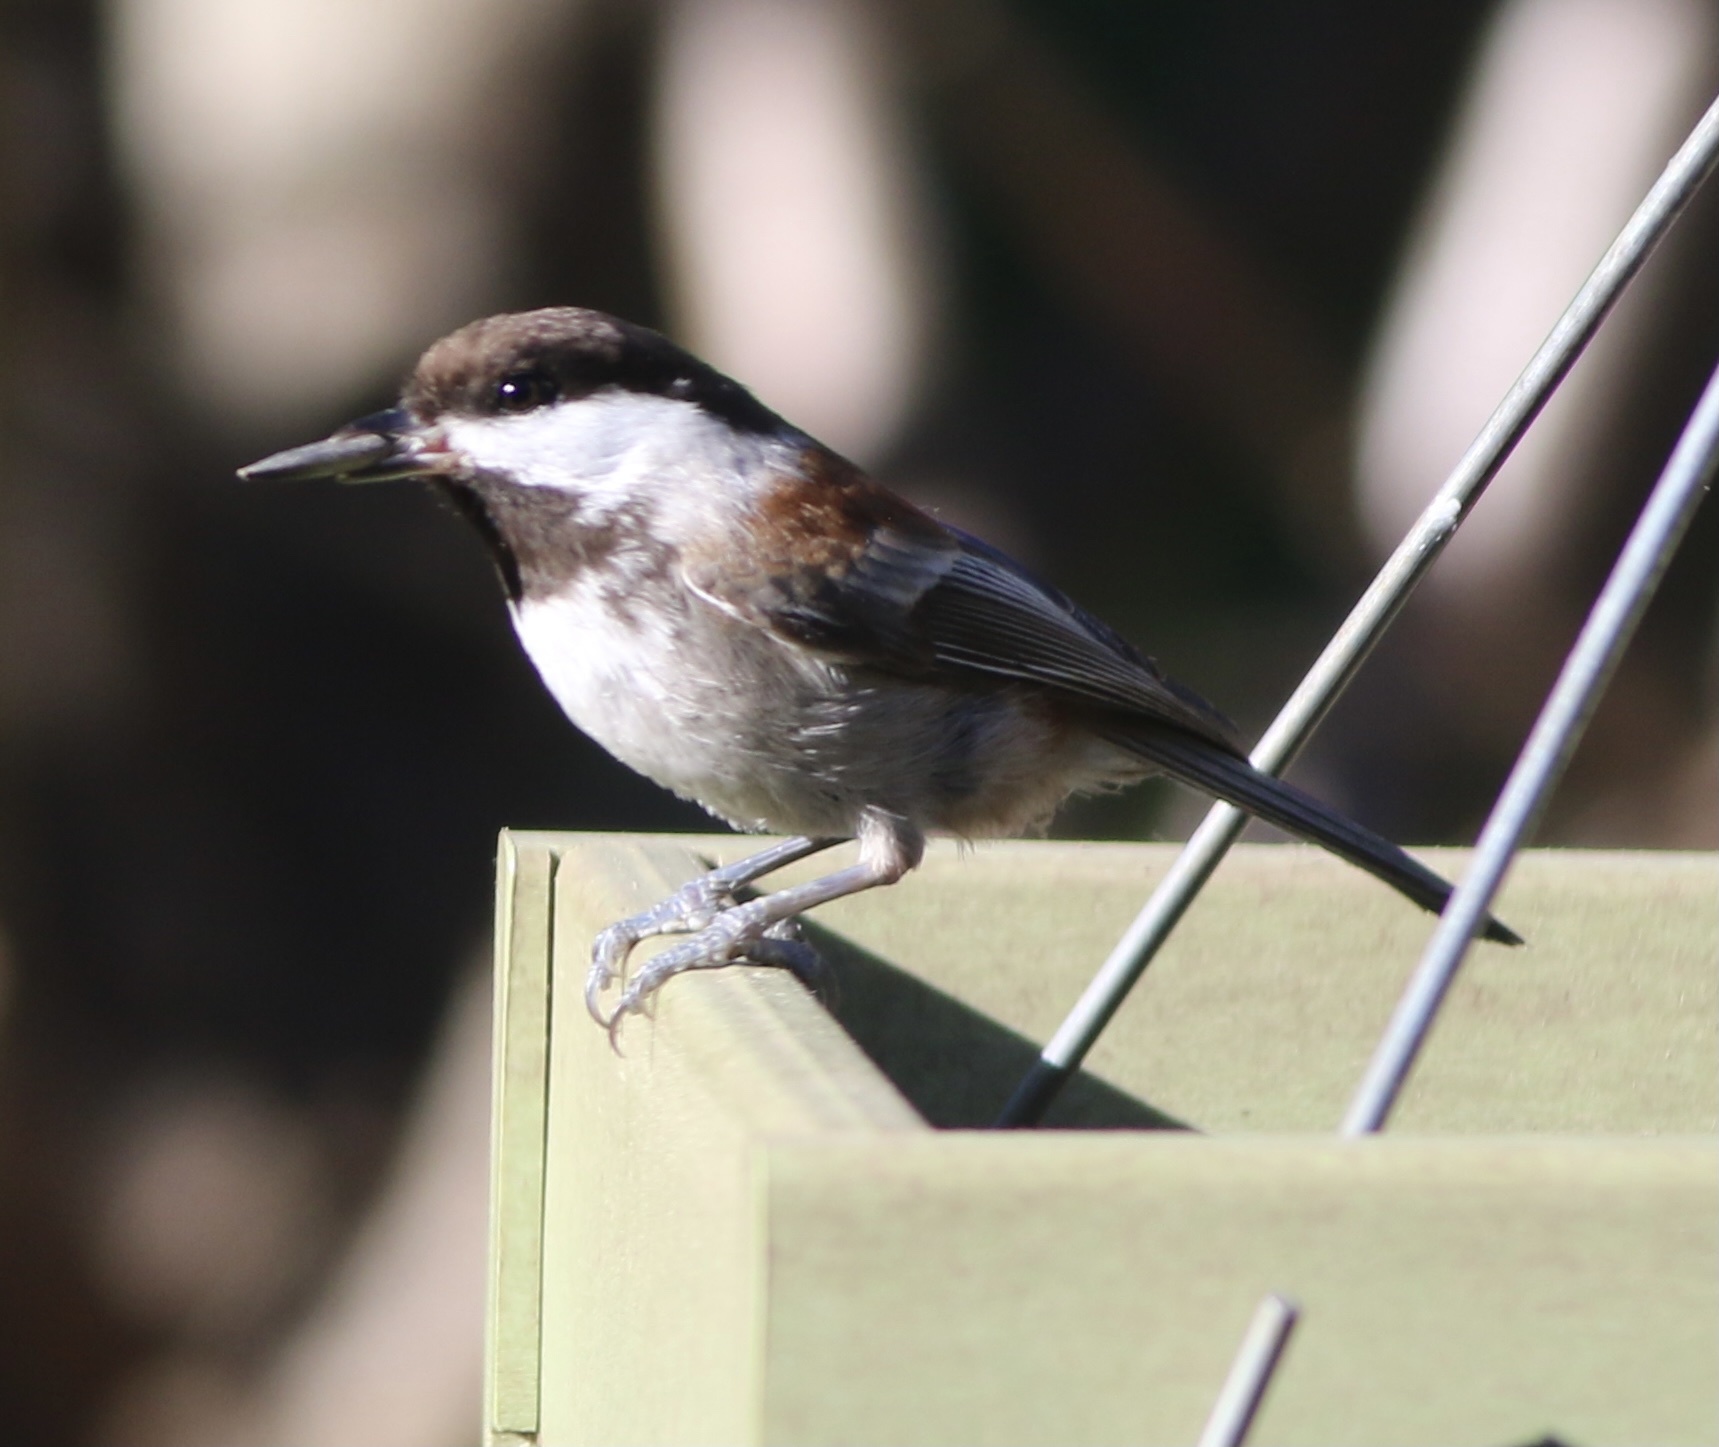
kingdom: Animalia
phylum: Chordata
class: Aves
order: Passeriformes
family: Paridae
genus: Poecile
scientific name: Poecile rufescens
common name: Chestnut-backed chickadee
